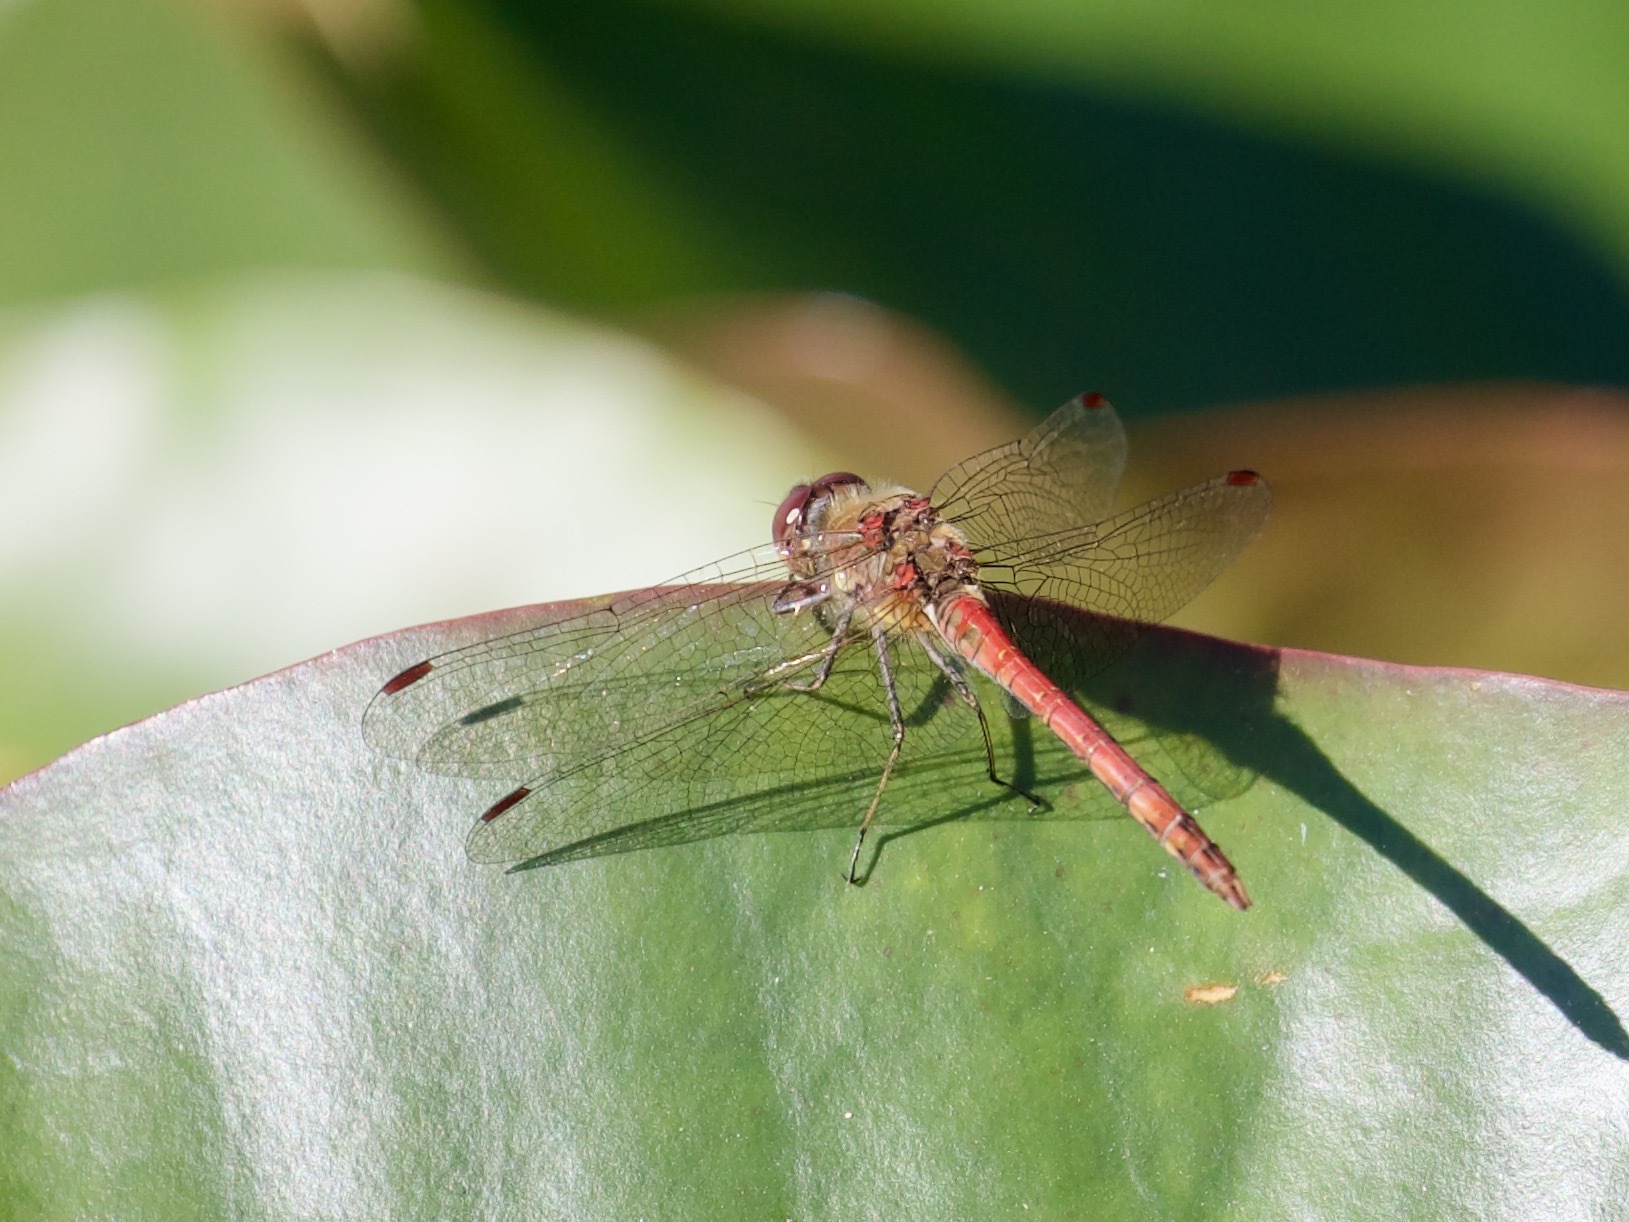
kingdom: Animalia
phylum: Arthropoda
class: Insecta
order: Odonata
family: Libellulidae
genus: Sympetrum
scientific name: Sympetrum striolatum
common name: Common darter
